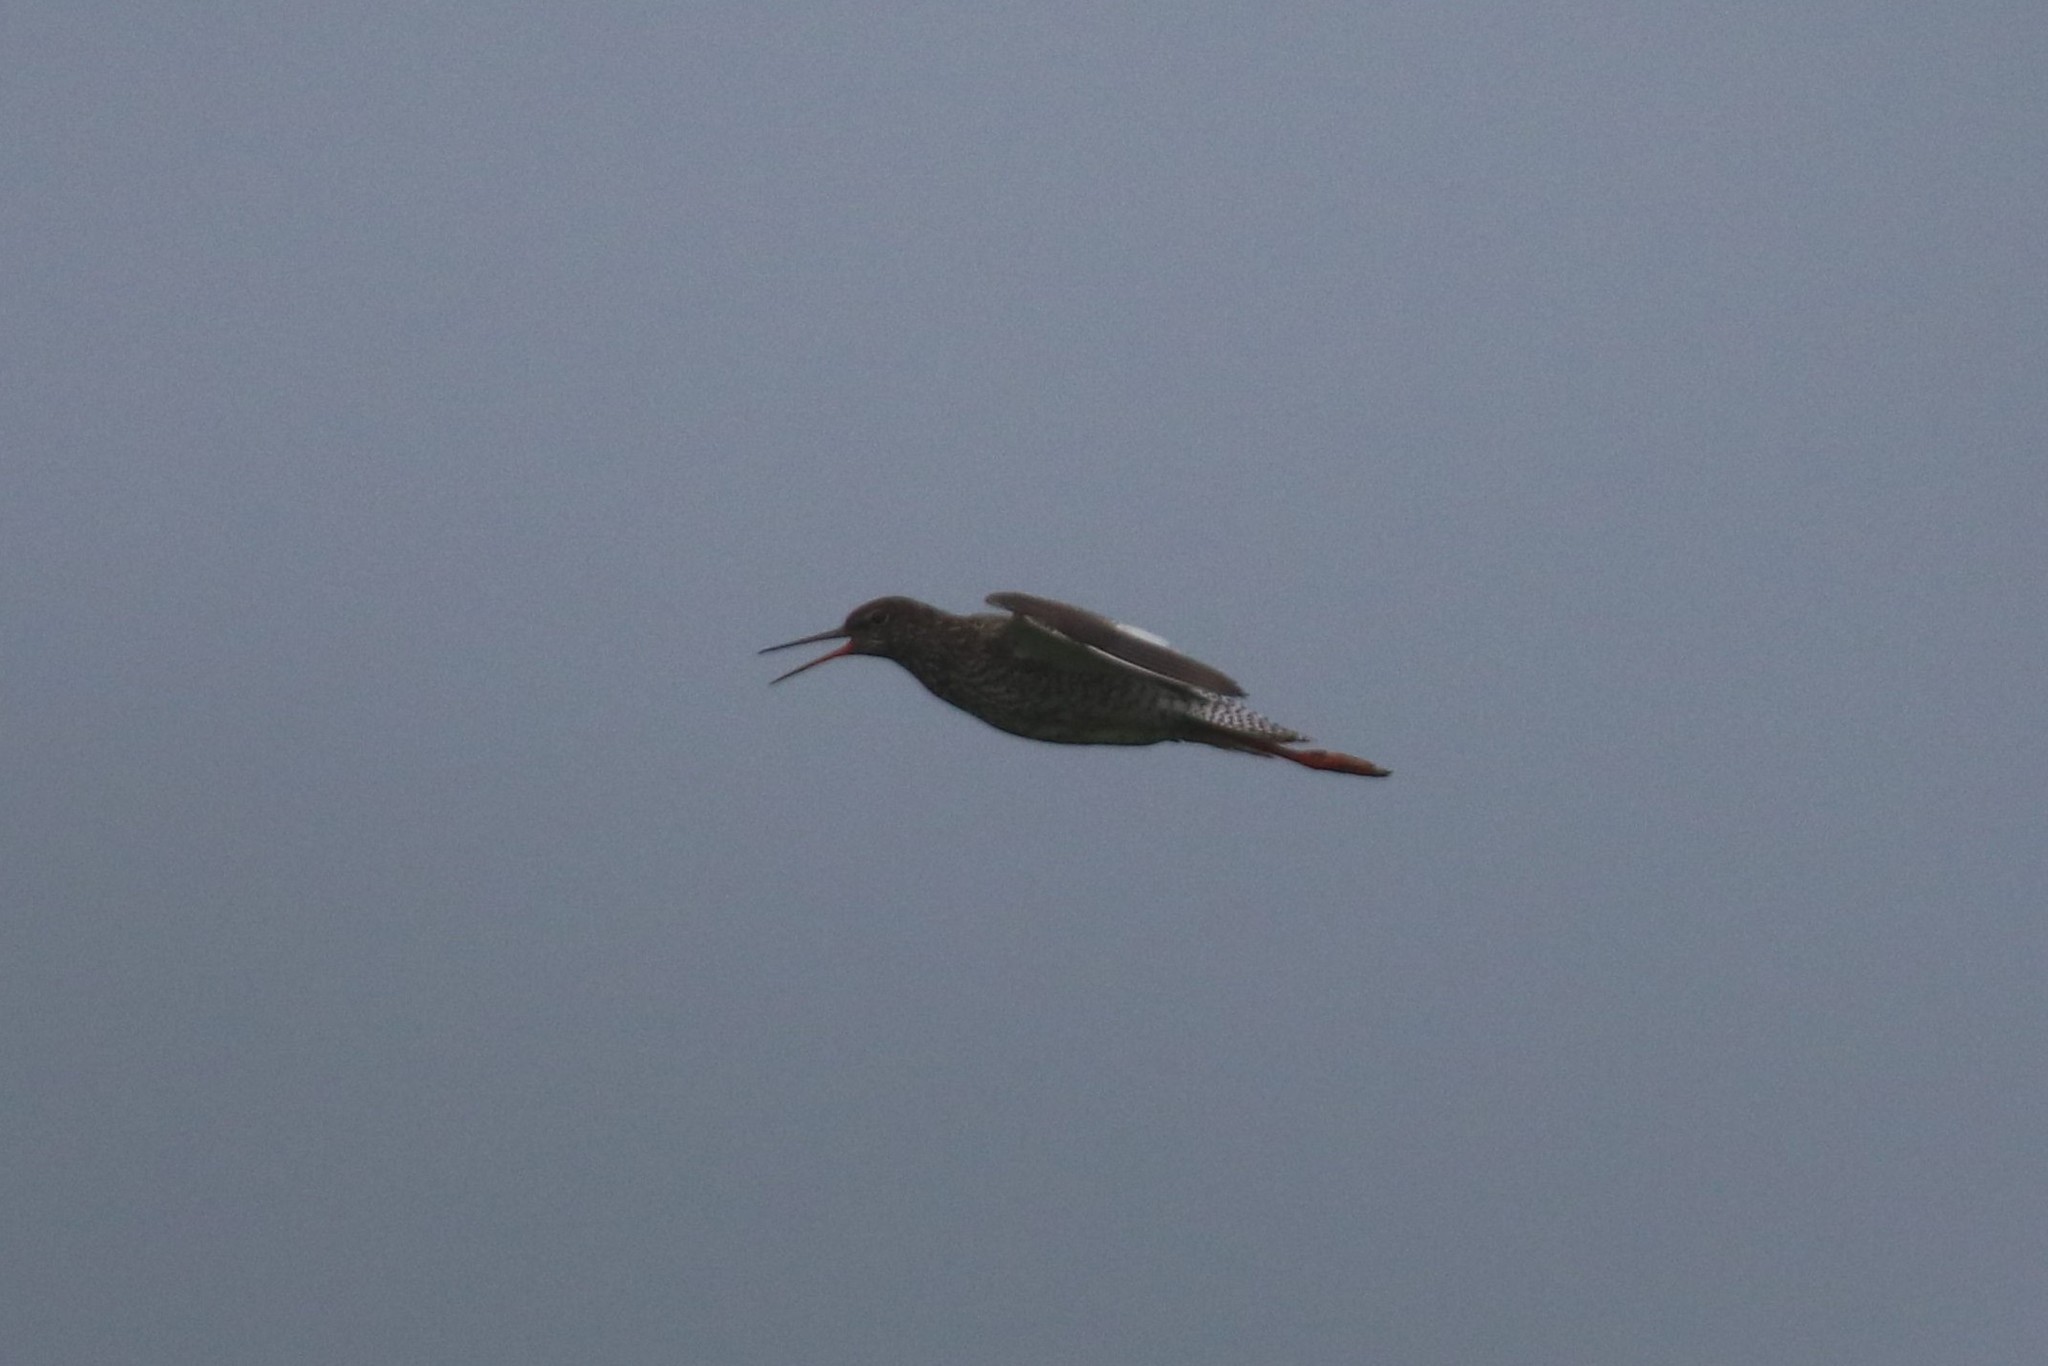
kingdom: Animalia
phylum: Chordata
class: Aves
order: Charadriiformes
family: Scolopacidae
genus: Tringa
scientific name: Tringa totanus
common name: Common redshank
